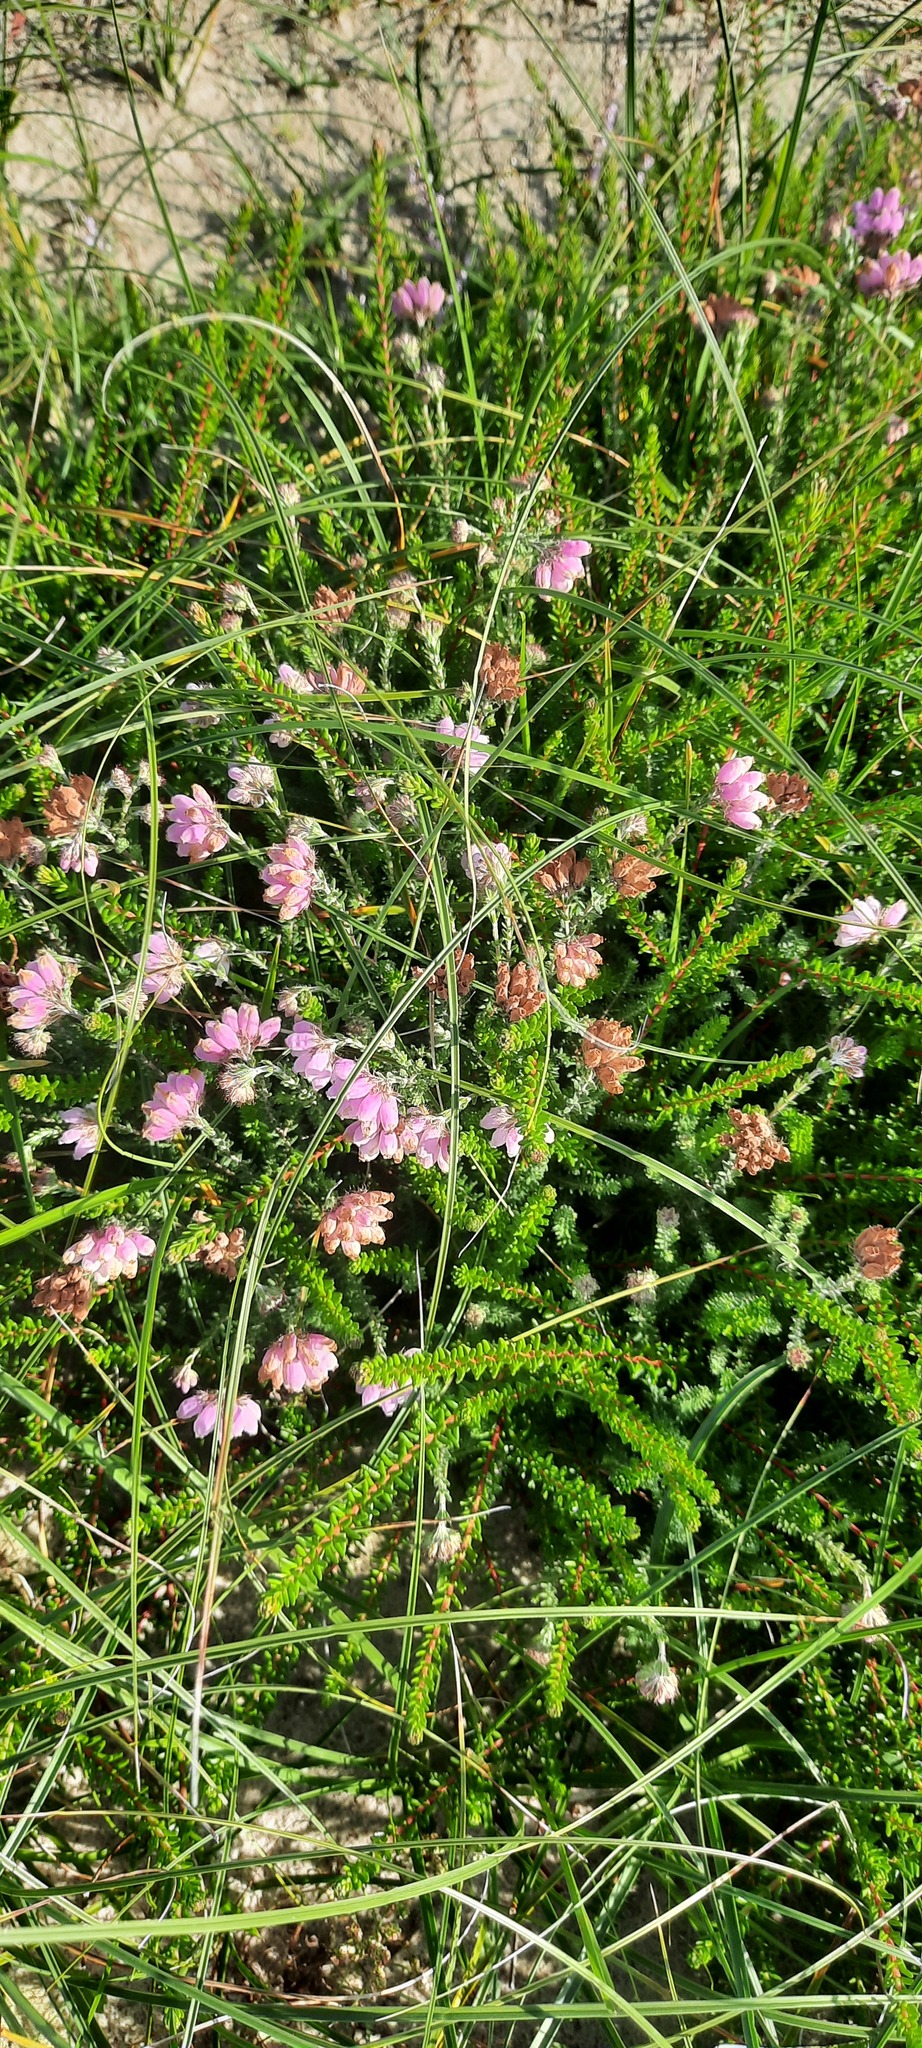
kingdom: Plantae
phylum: Tracheophyta
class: Magnoliopsida
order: Ericales
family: Ericaceae
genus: Erica
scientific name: Erica tetralix
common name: Cross-leaved heath
